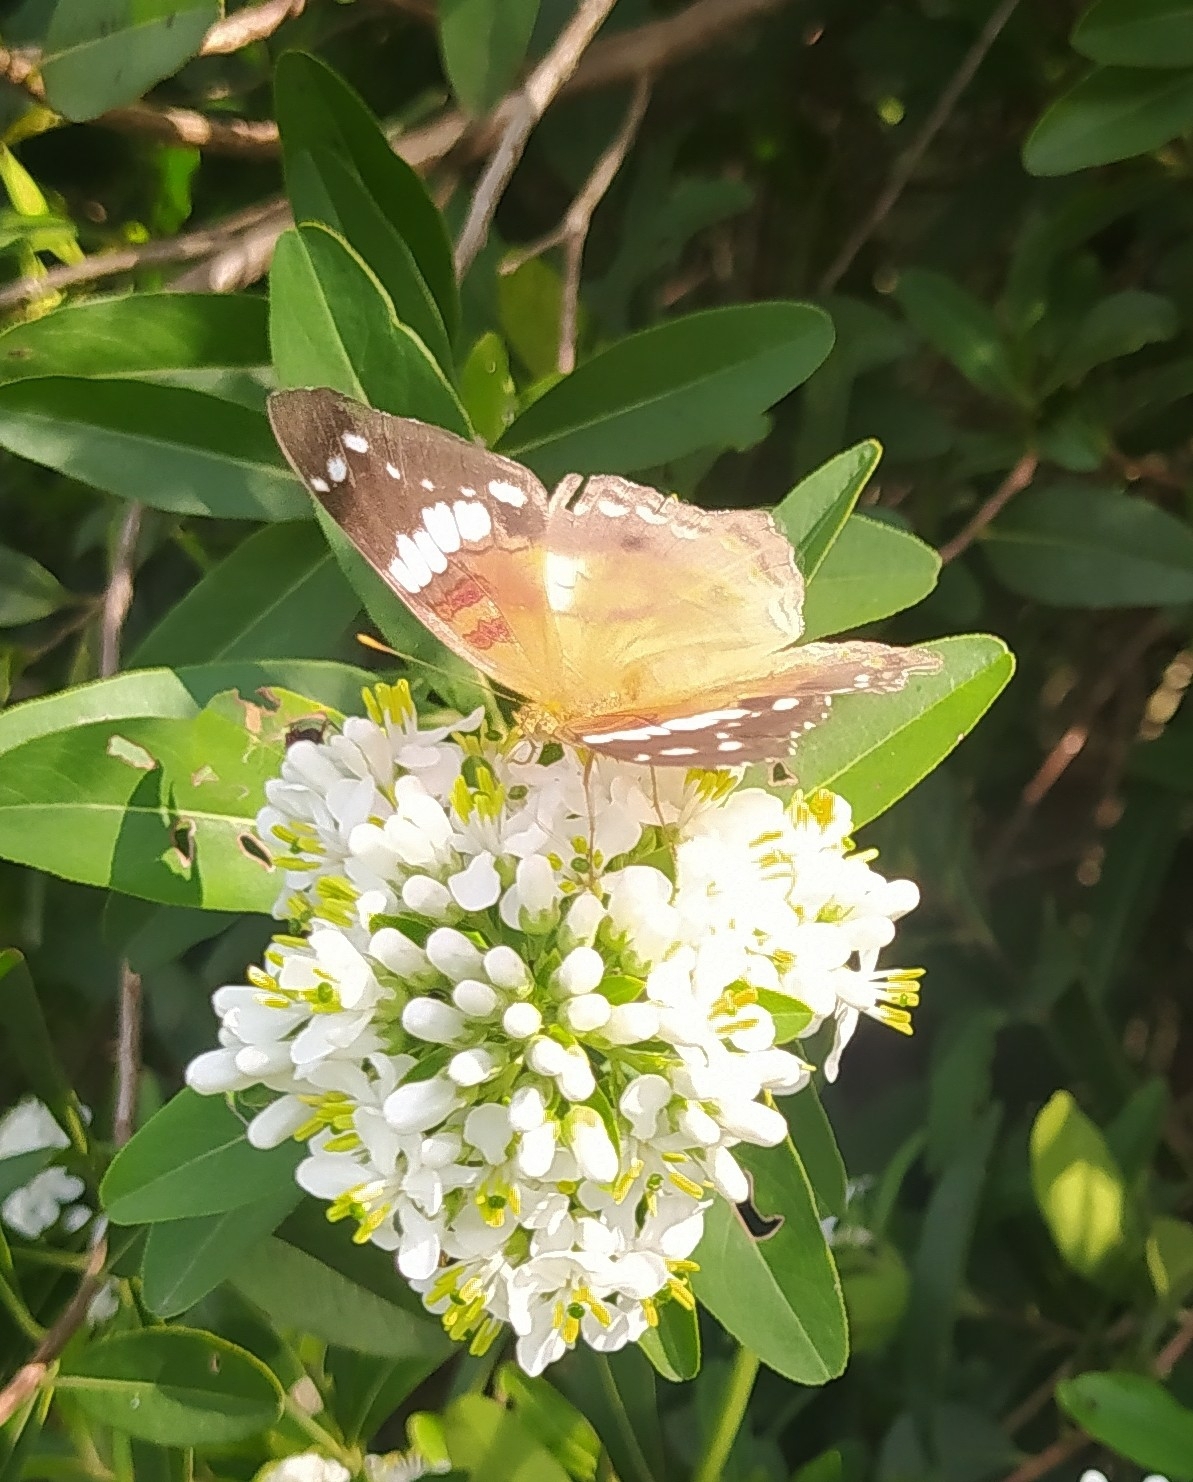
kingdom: Animalia
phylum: Arthropoda
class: Insecta
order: Lepidoptera
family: Nymphalidae
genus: Anartia
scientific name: Anartia amathea
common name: Red peacock
